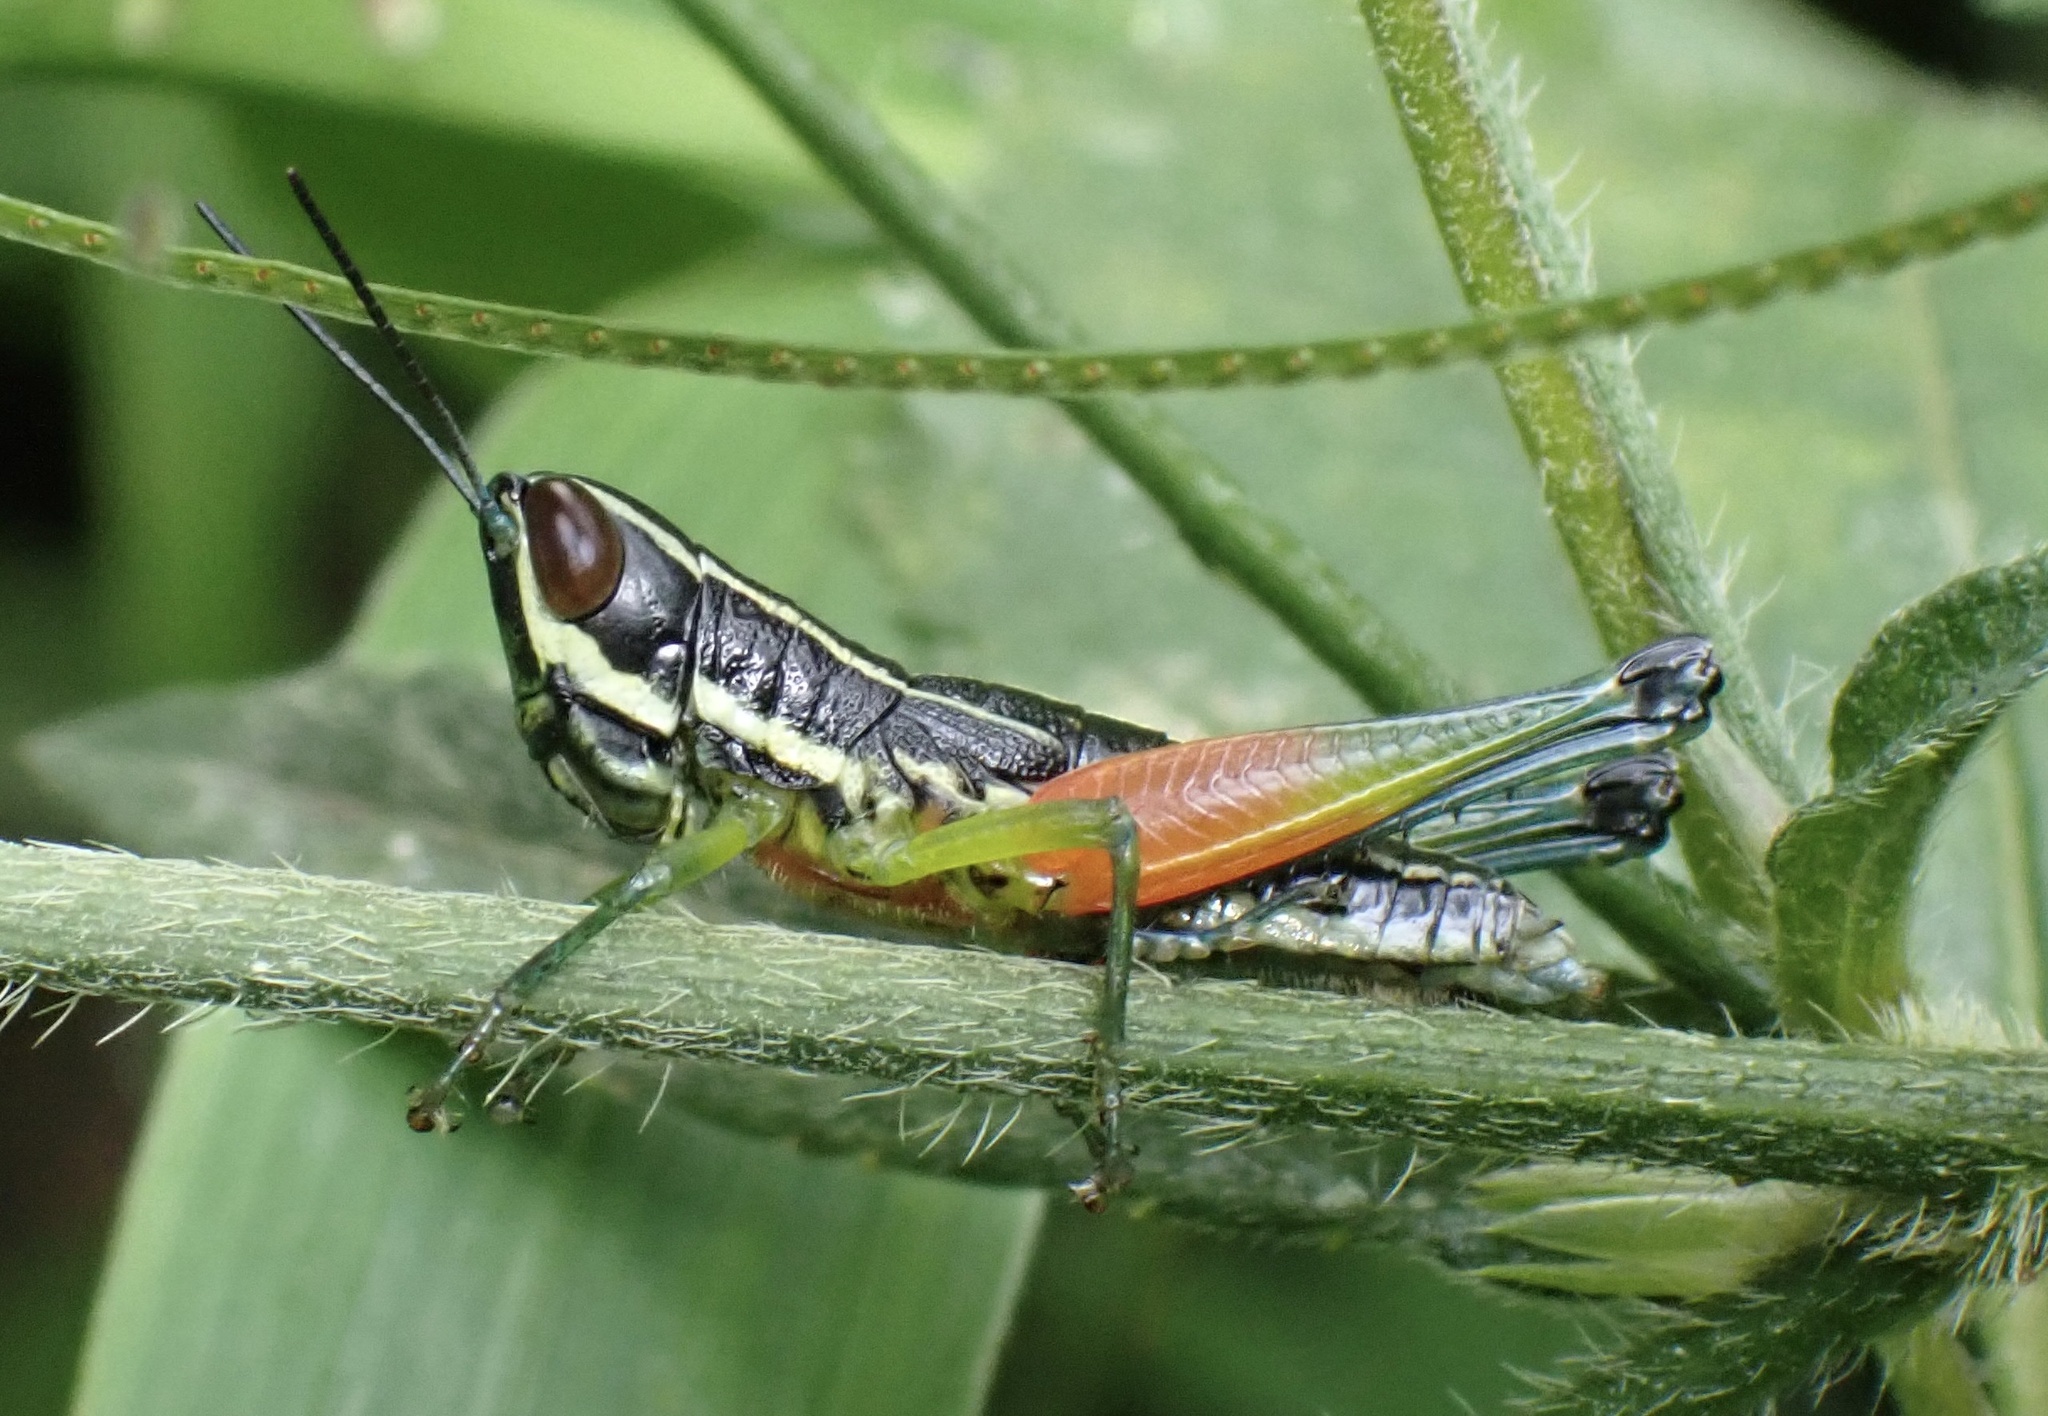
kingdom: Animalia
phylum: Arthropoda
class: Insecta
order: Orthoptera
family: Acrididae
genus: Chitaura
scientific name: Chitaura ochracea
